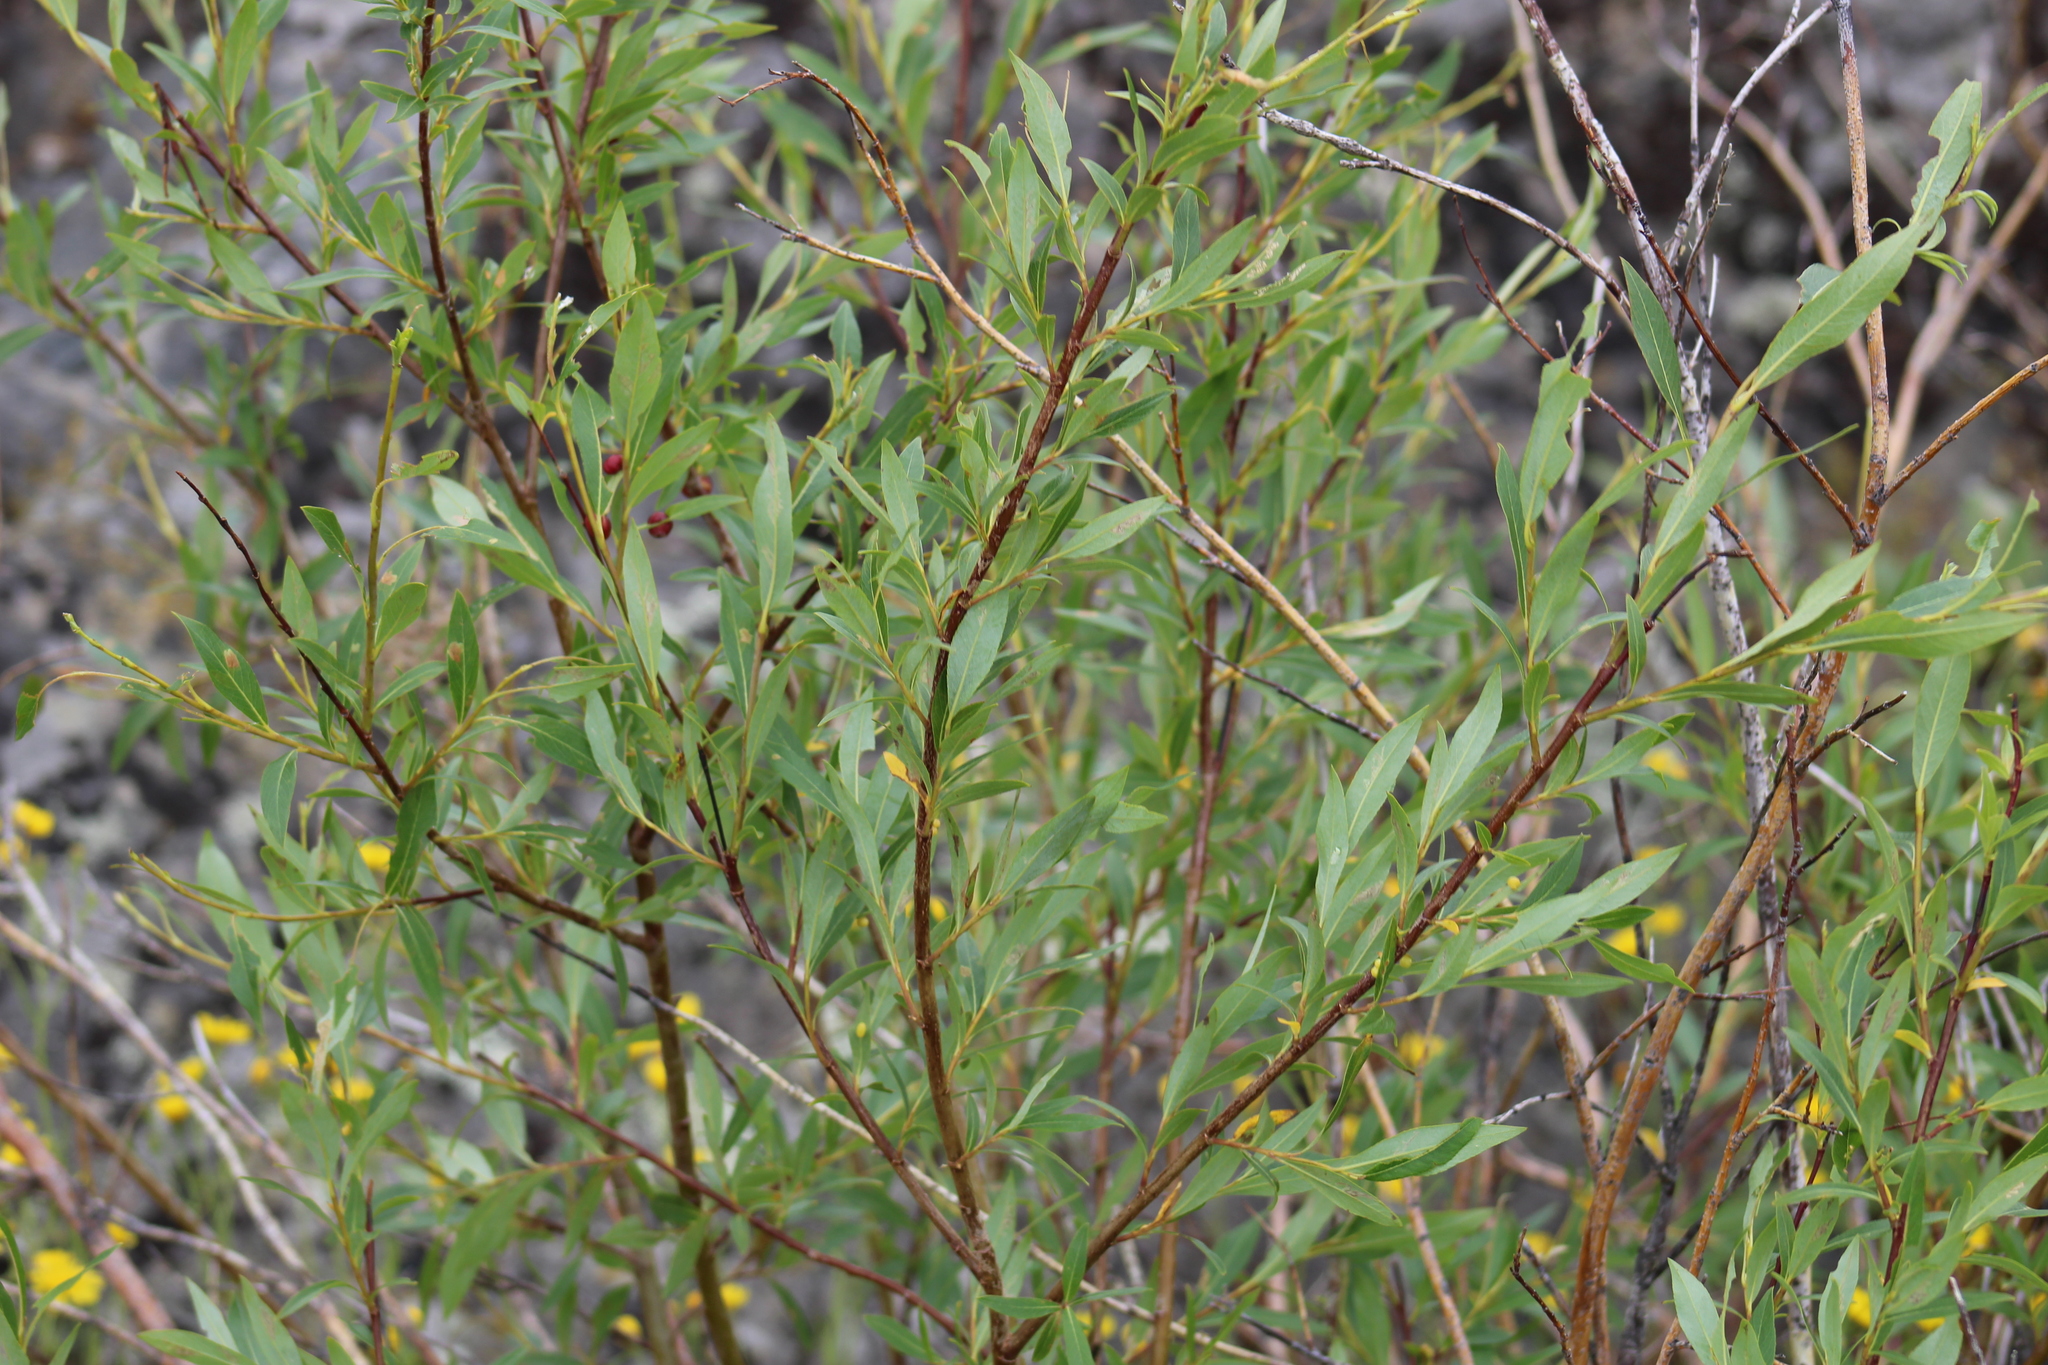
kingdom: Plantae
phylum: Tracheophyta
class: Magnoliopsida
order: Malpighiales
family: Salicaceae
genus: Salix
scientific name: Salix planifolia
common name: Mountain willow
